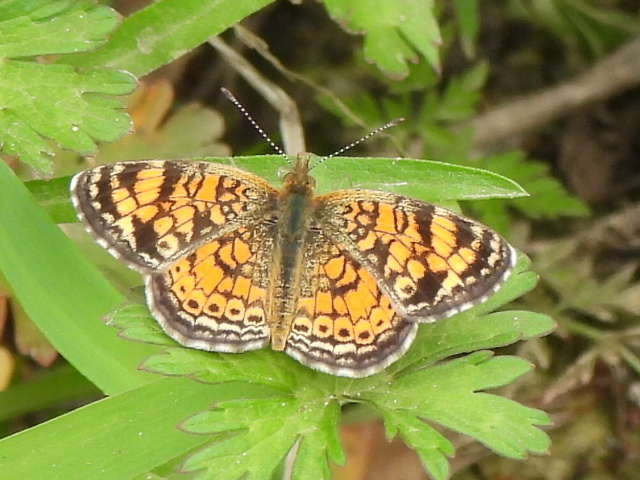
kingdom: Animalia
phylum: Arthropoda
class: Insecta
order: Lepidoptera
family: Nymphalidae
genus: Phyciodes
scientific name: Phyciodes tharos
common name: Pearl crescent
